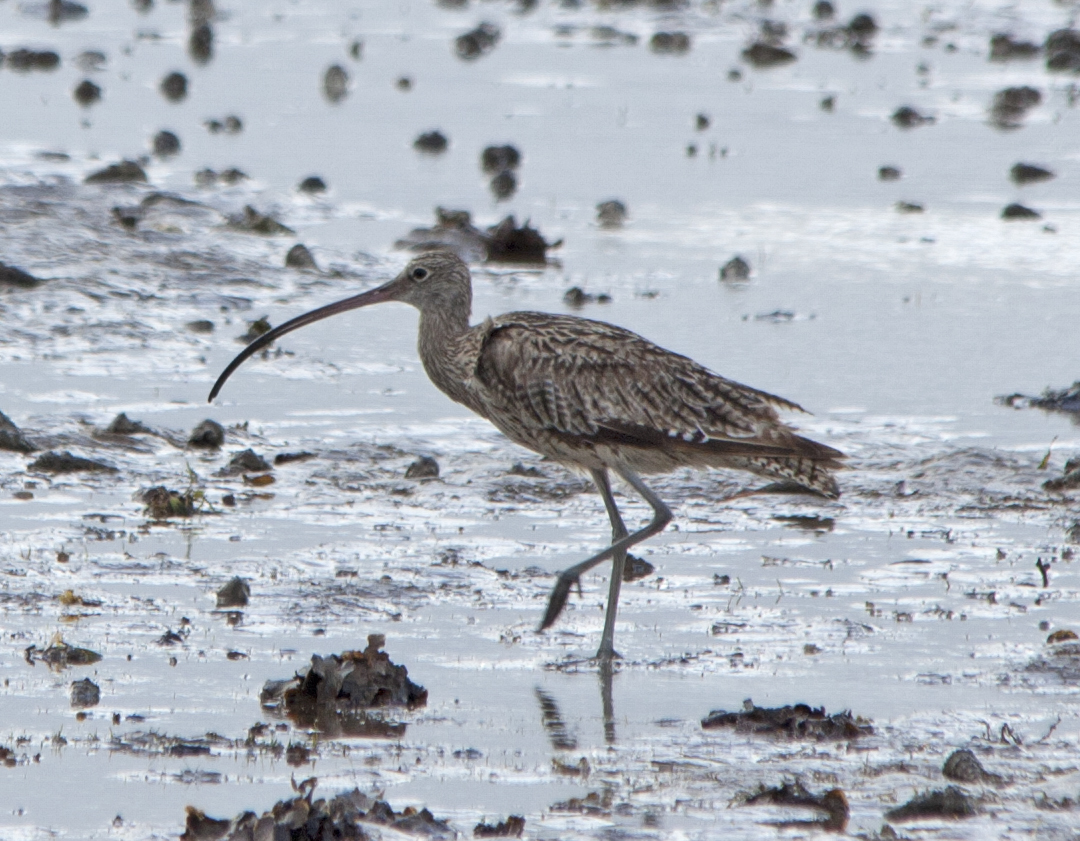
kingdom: Animalia
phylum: Chordata
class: Aves
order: Charadriiformes
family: Scolopacidae
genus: Numenius
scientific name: Numenius madagascariensis
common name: Far eastern curlew
